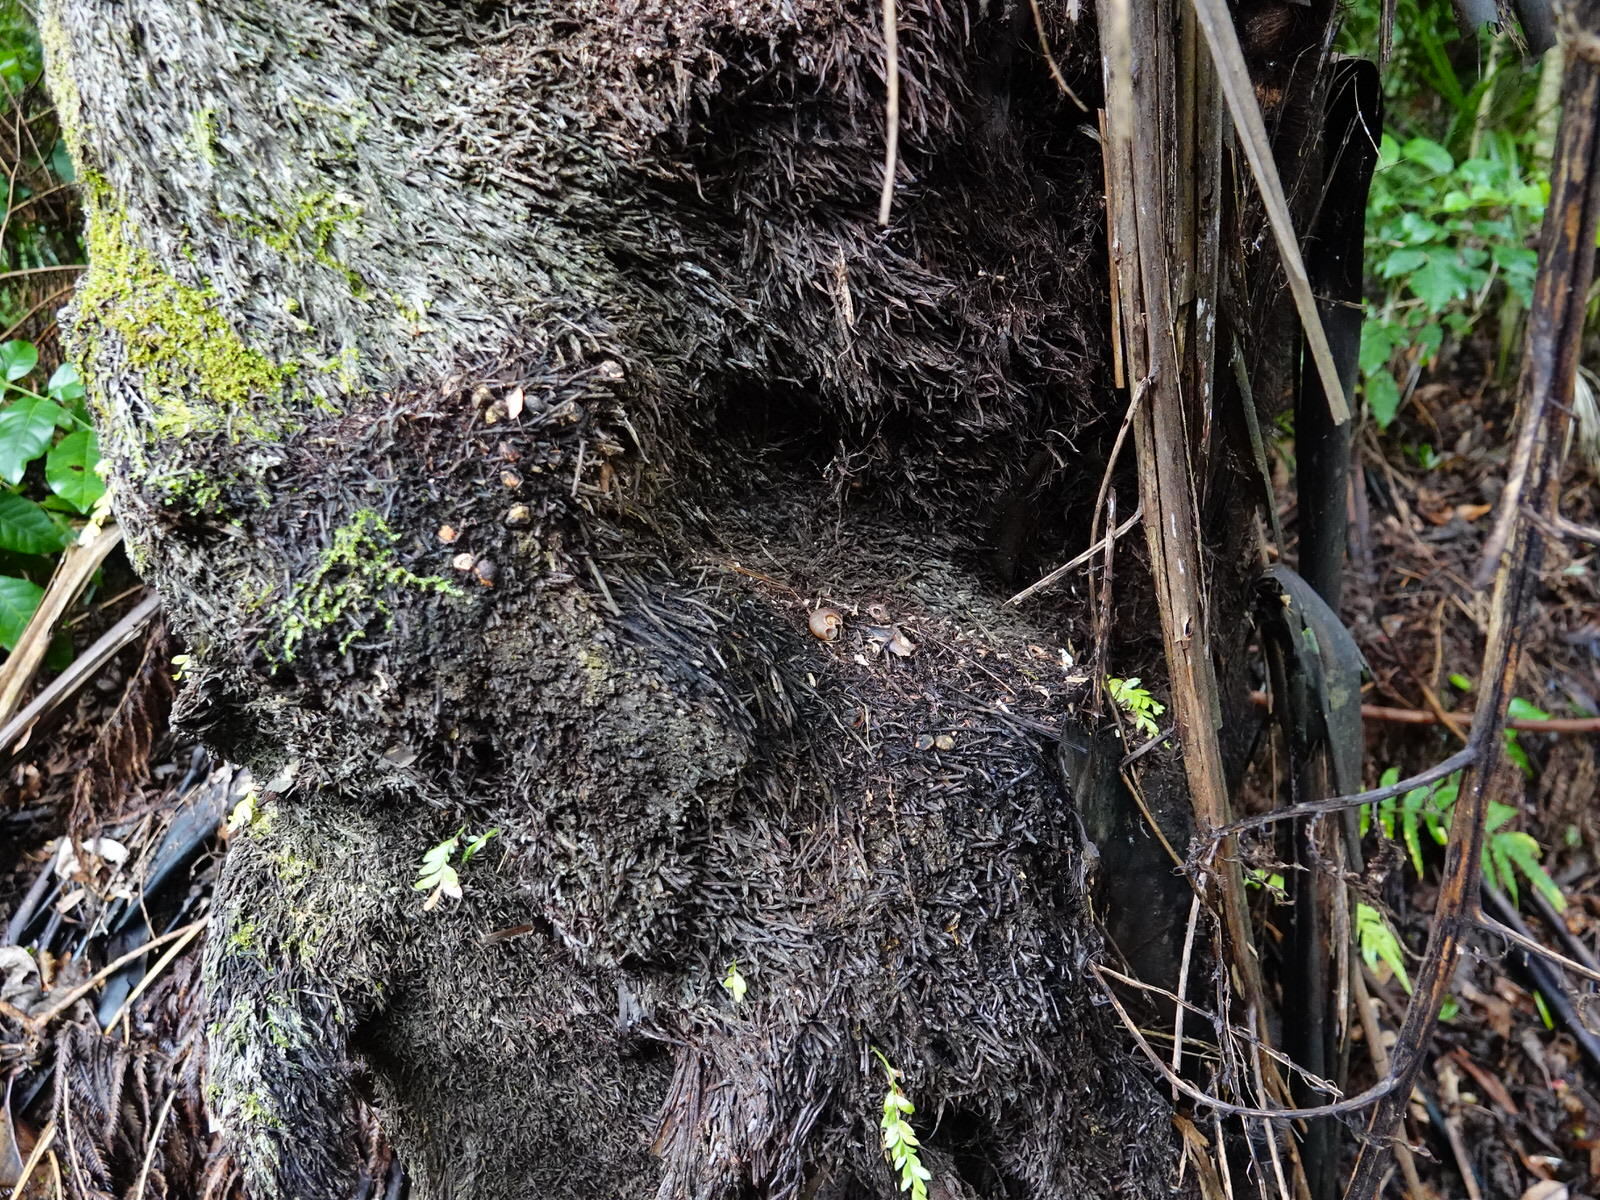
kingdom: Animalia
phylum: Mollusca
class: Gastropoda
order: Stylommatophora
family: Rhytididae
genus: Rhytida
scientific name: Rhytida greenwoodi
